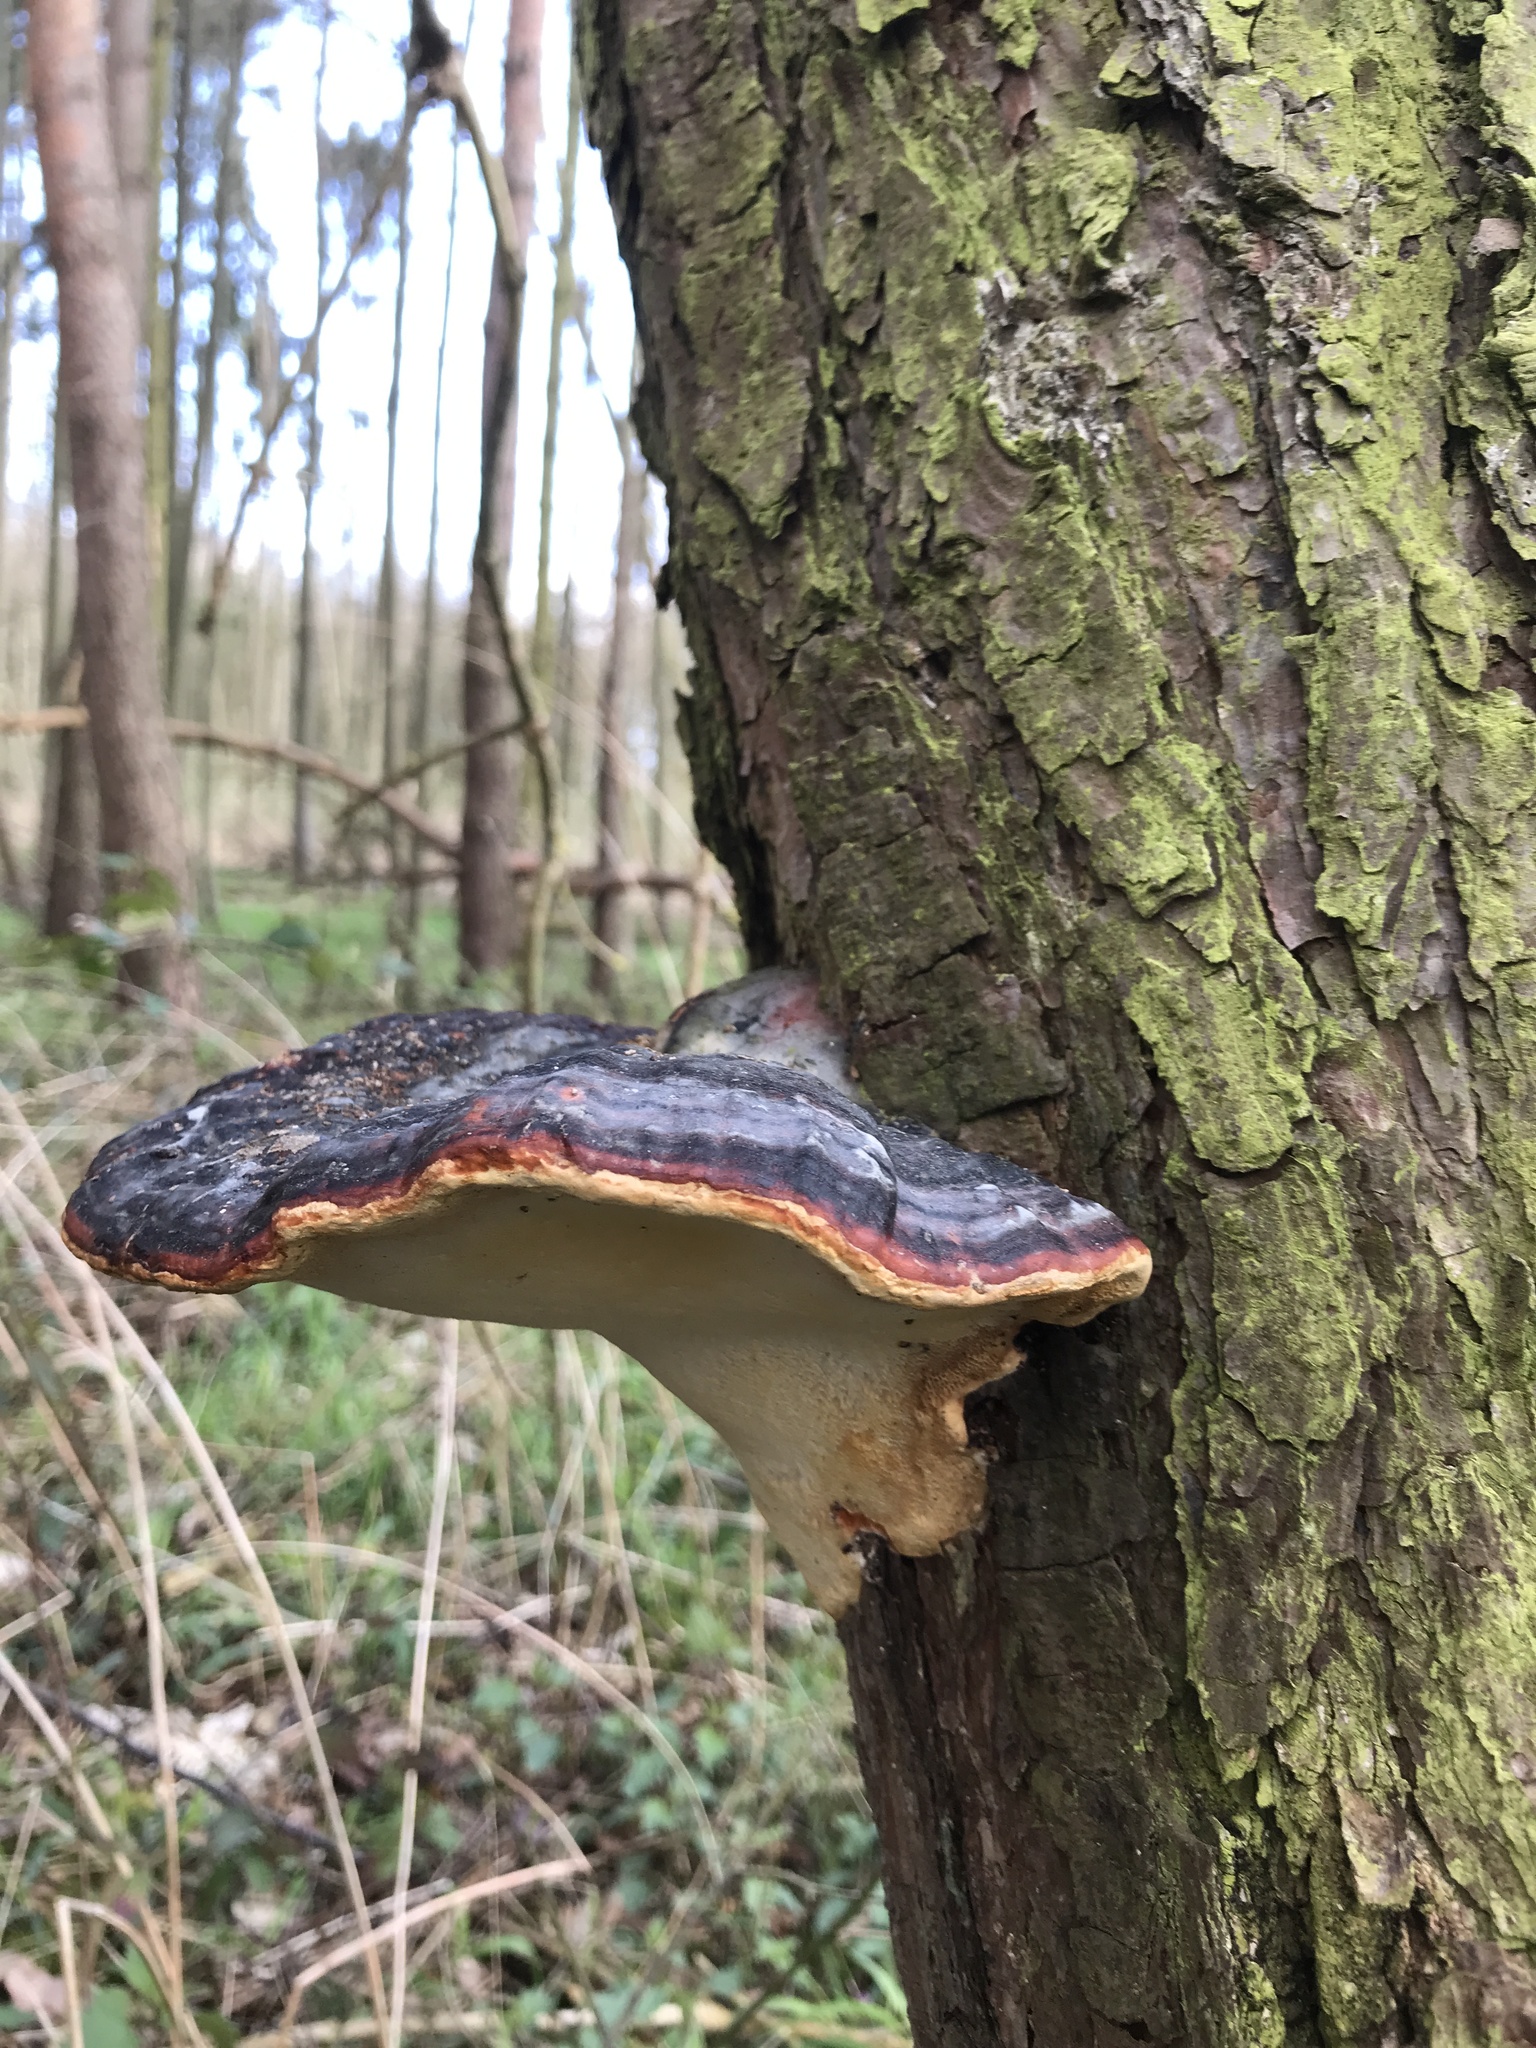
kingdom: Fungi
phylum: Basidiomycota
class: Agaricomycetes
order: Polyporales
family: Fomitopsidaceae
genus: Fomitopsis
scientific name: Fomitopsis pinicola
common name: Red-belted bracket
